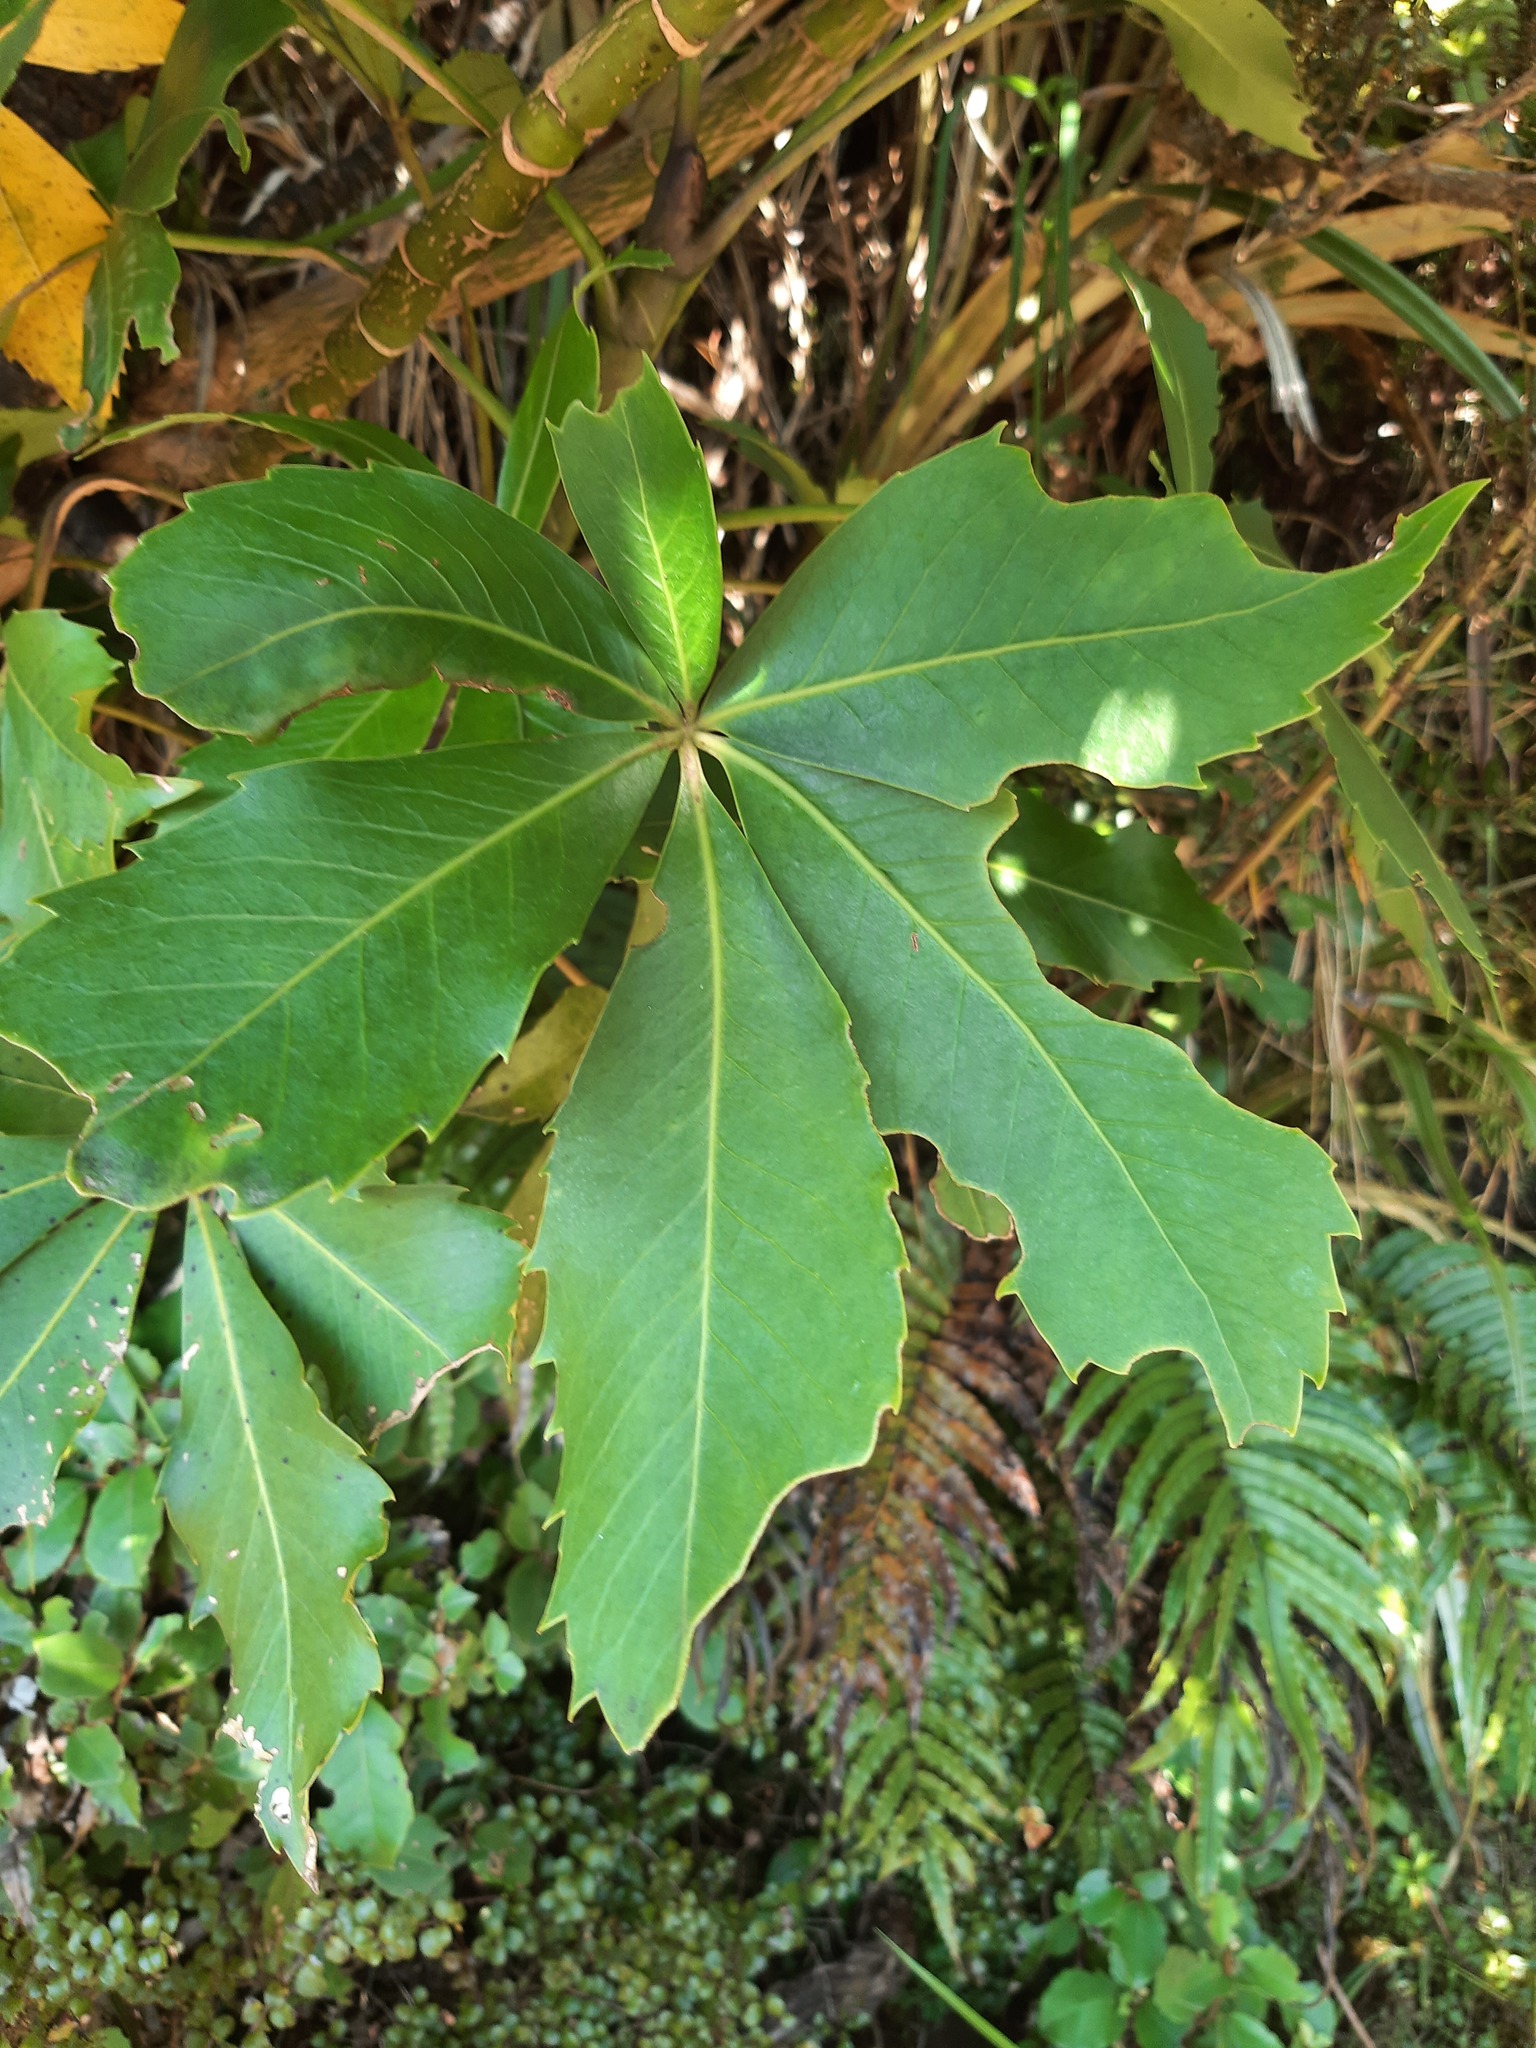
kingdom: Plantae
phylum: Tracheophyta
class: Magnoliopsida
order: Apiales
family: Araliaceae
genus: Neopanax
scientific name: Neopanax colensoi
